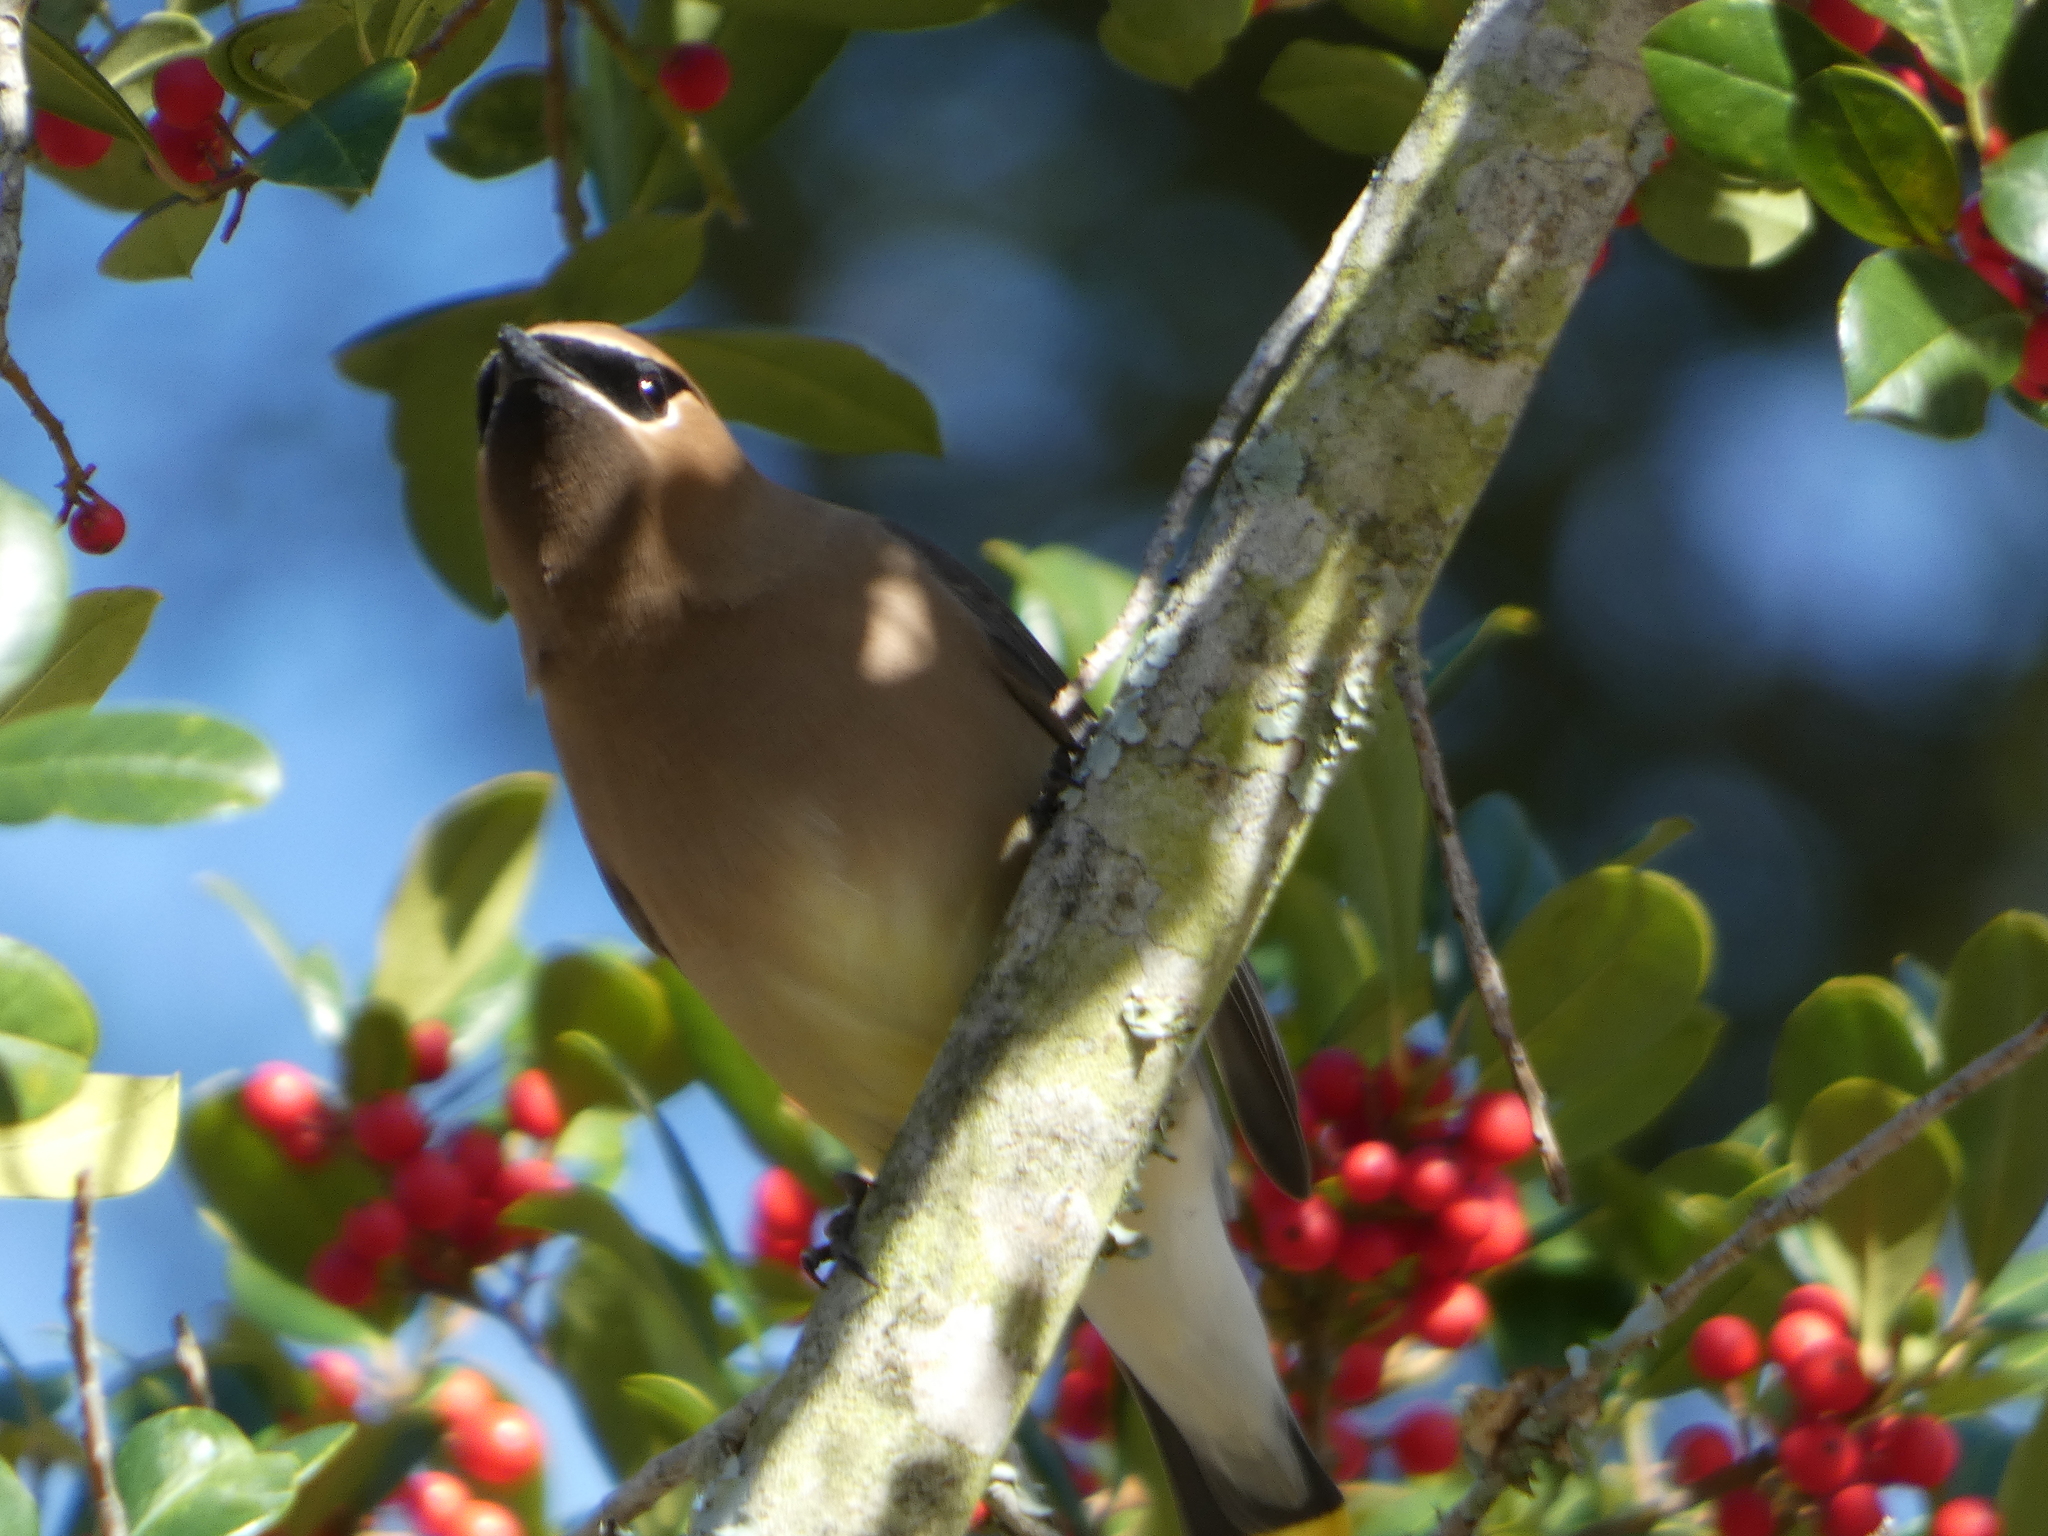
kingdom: Animalia
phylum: Chordata
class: Aves
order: Passeriformes
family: Bombycillidae
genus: Bombycilla
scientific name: Bombycilla cedrorum
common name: Cedar waxwing
